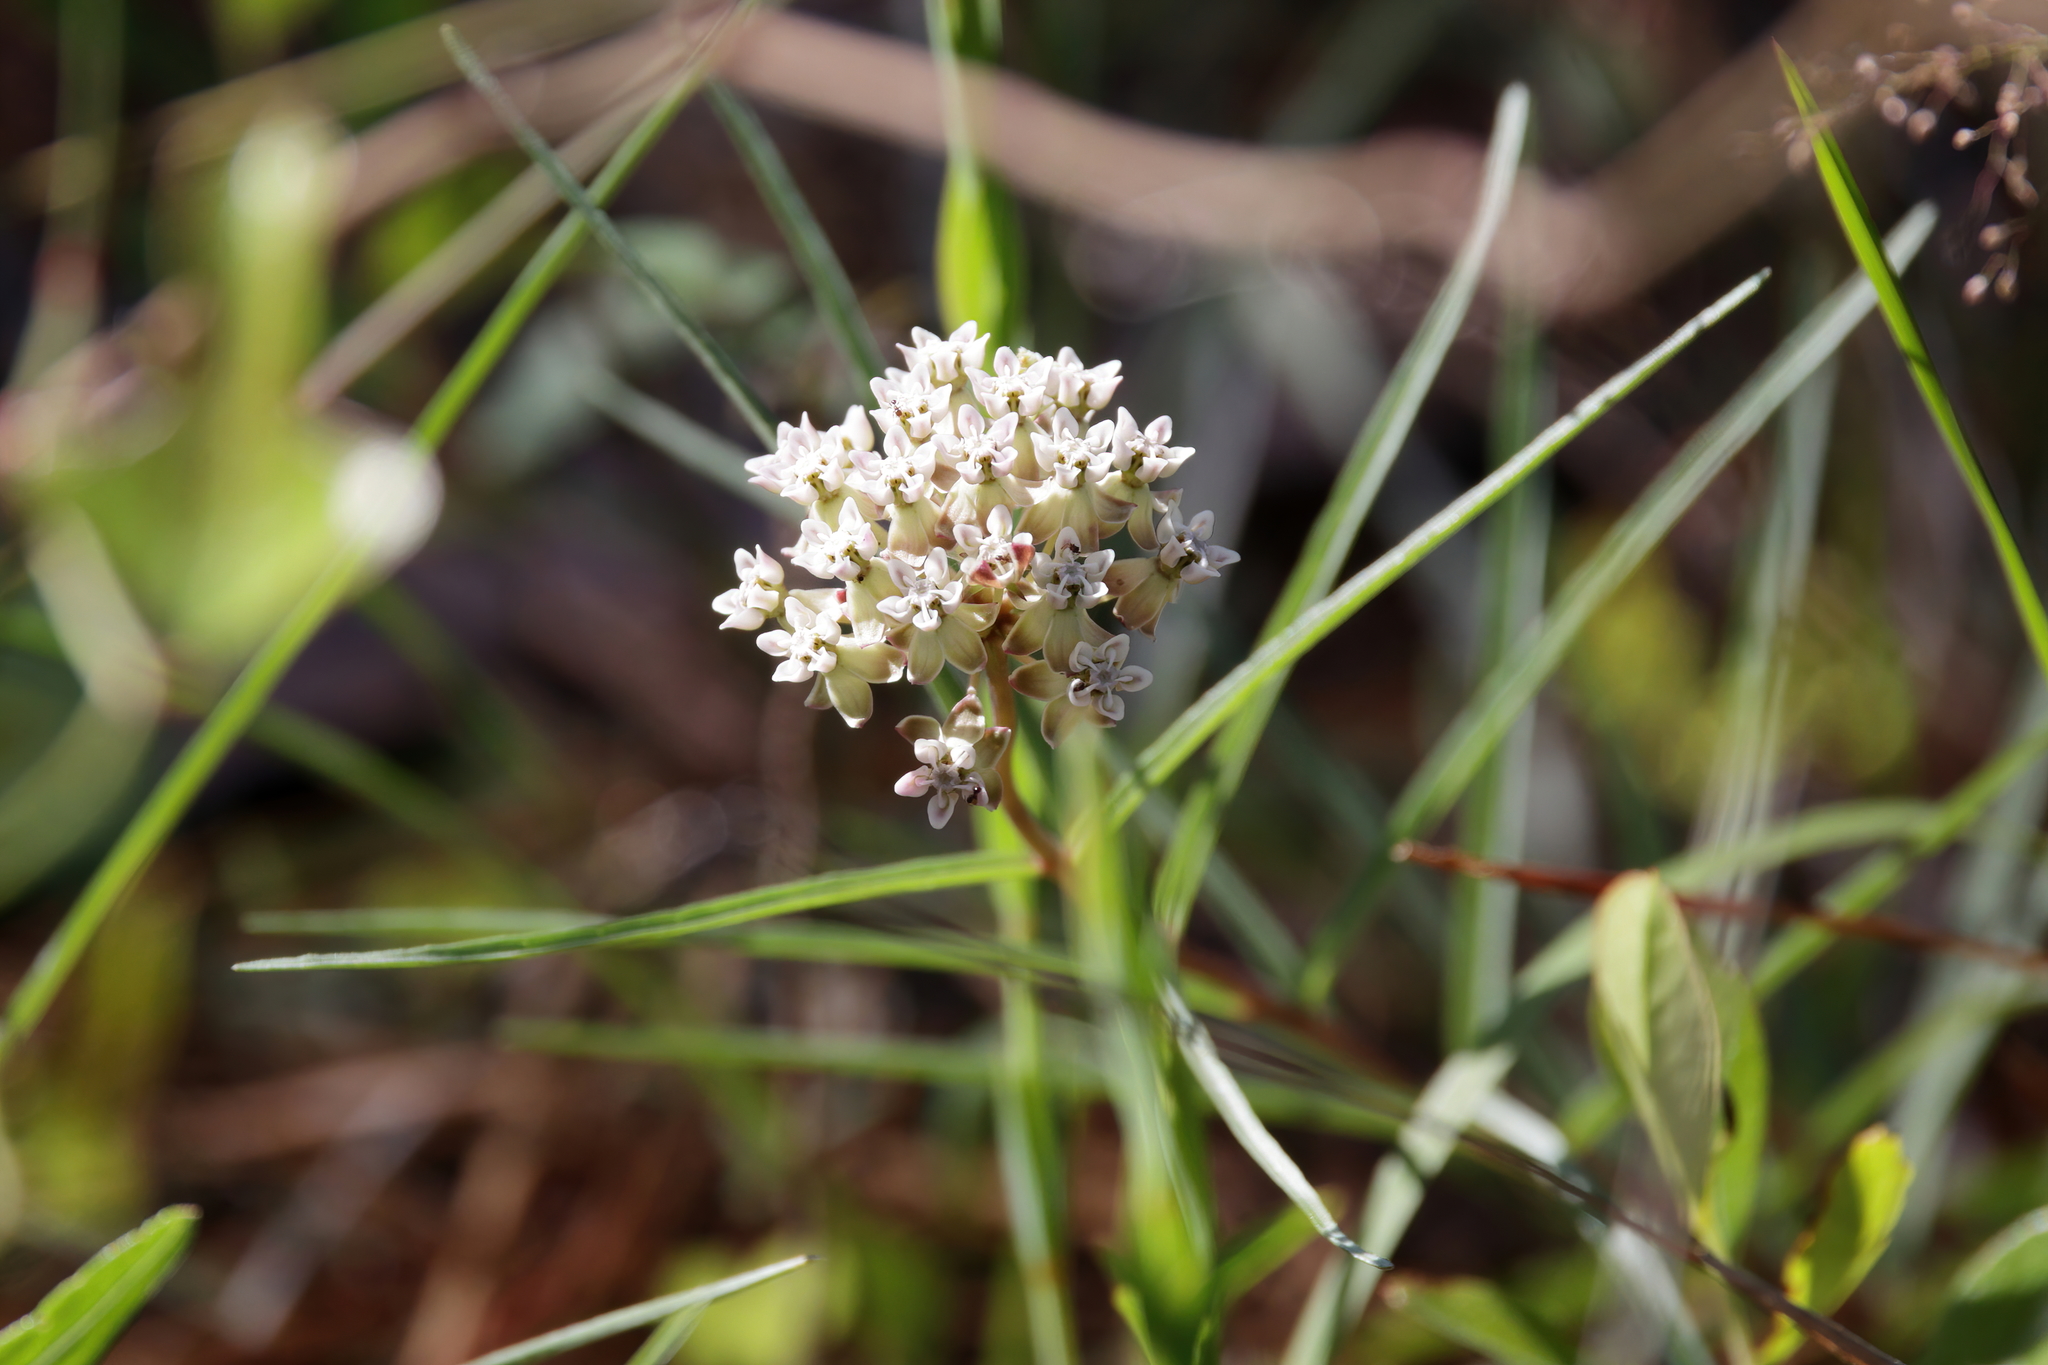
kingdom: Plantae
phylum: Tracheophyta
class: Magnoliopsida
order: Gentianales
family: Apocynaceae
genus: Asclepias
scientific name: Asclepias michauxii
